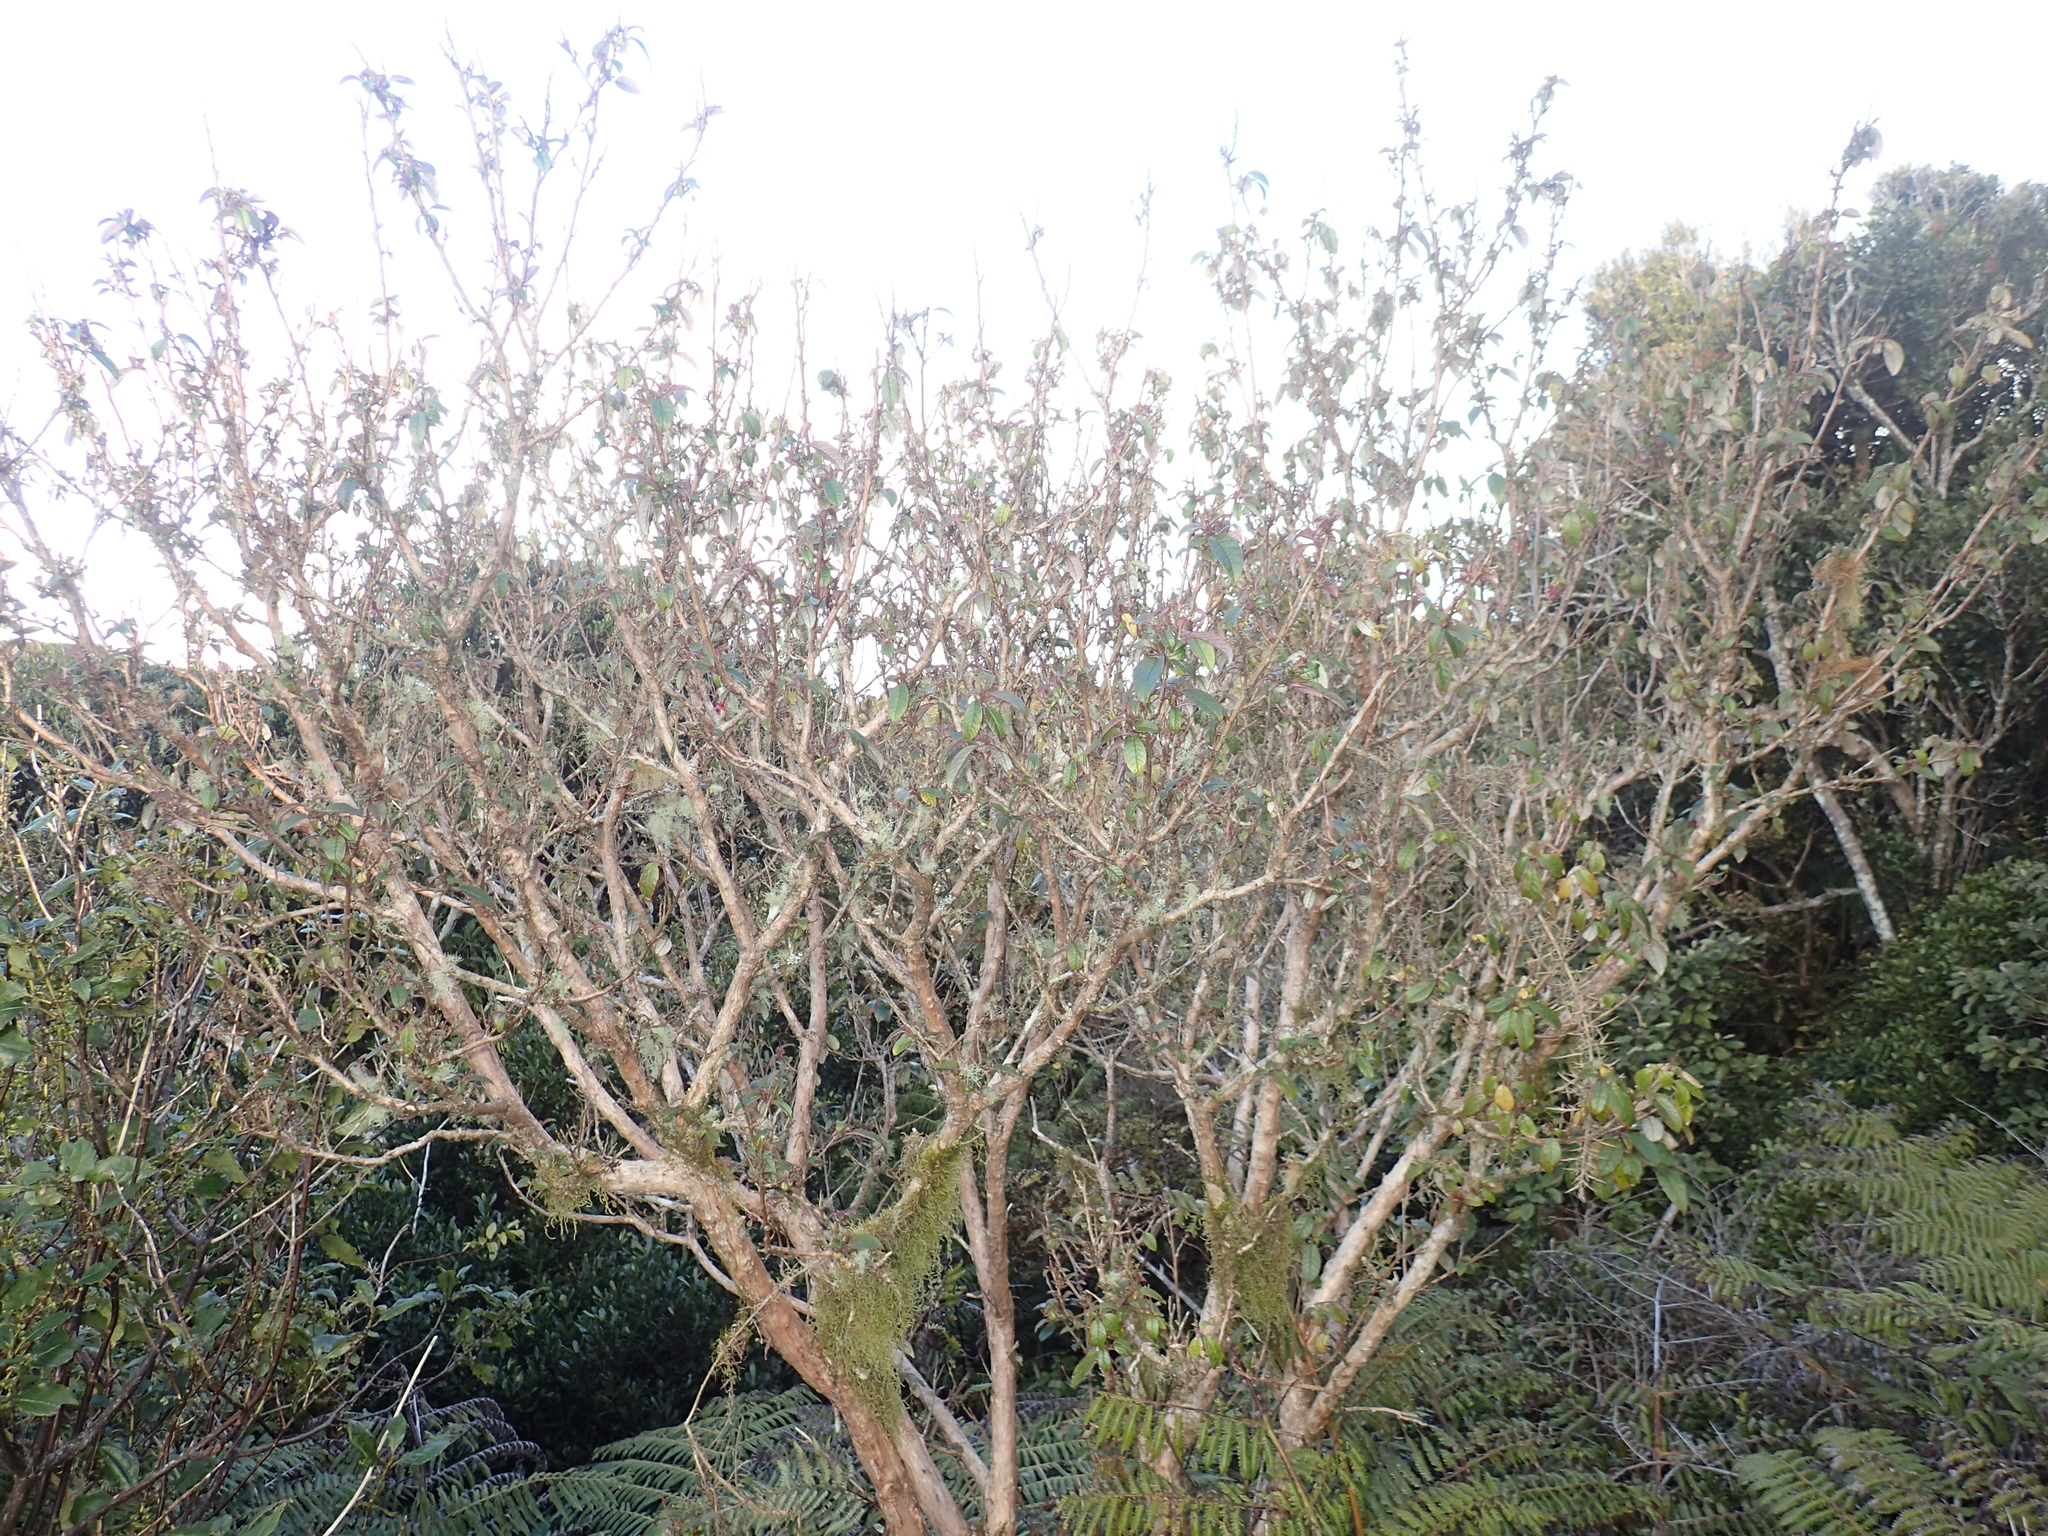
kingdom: Plantae
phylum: Tracheophyta
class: Magnoliopsida
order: Myrtales
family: Onagraceae
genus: Fuchsia
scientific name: Fuchsia excorticata
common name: Tree fuchsia
